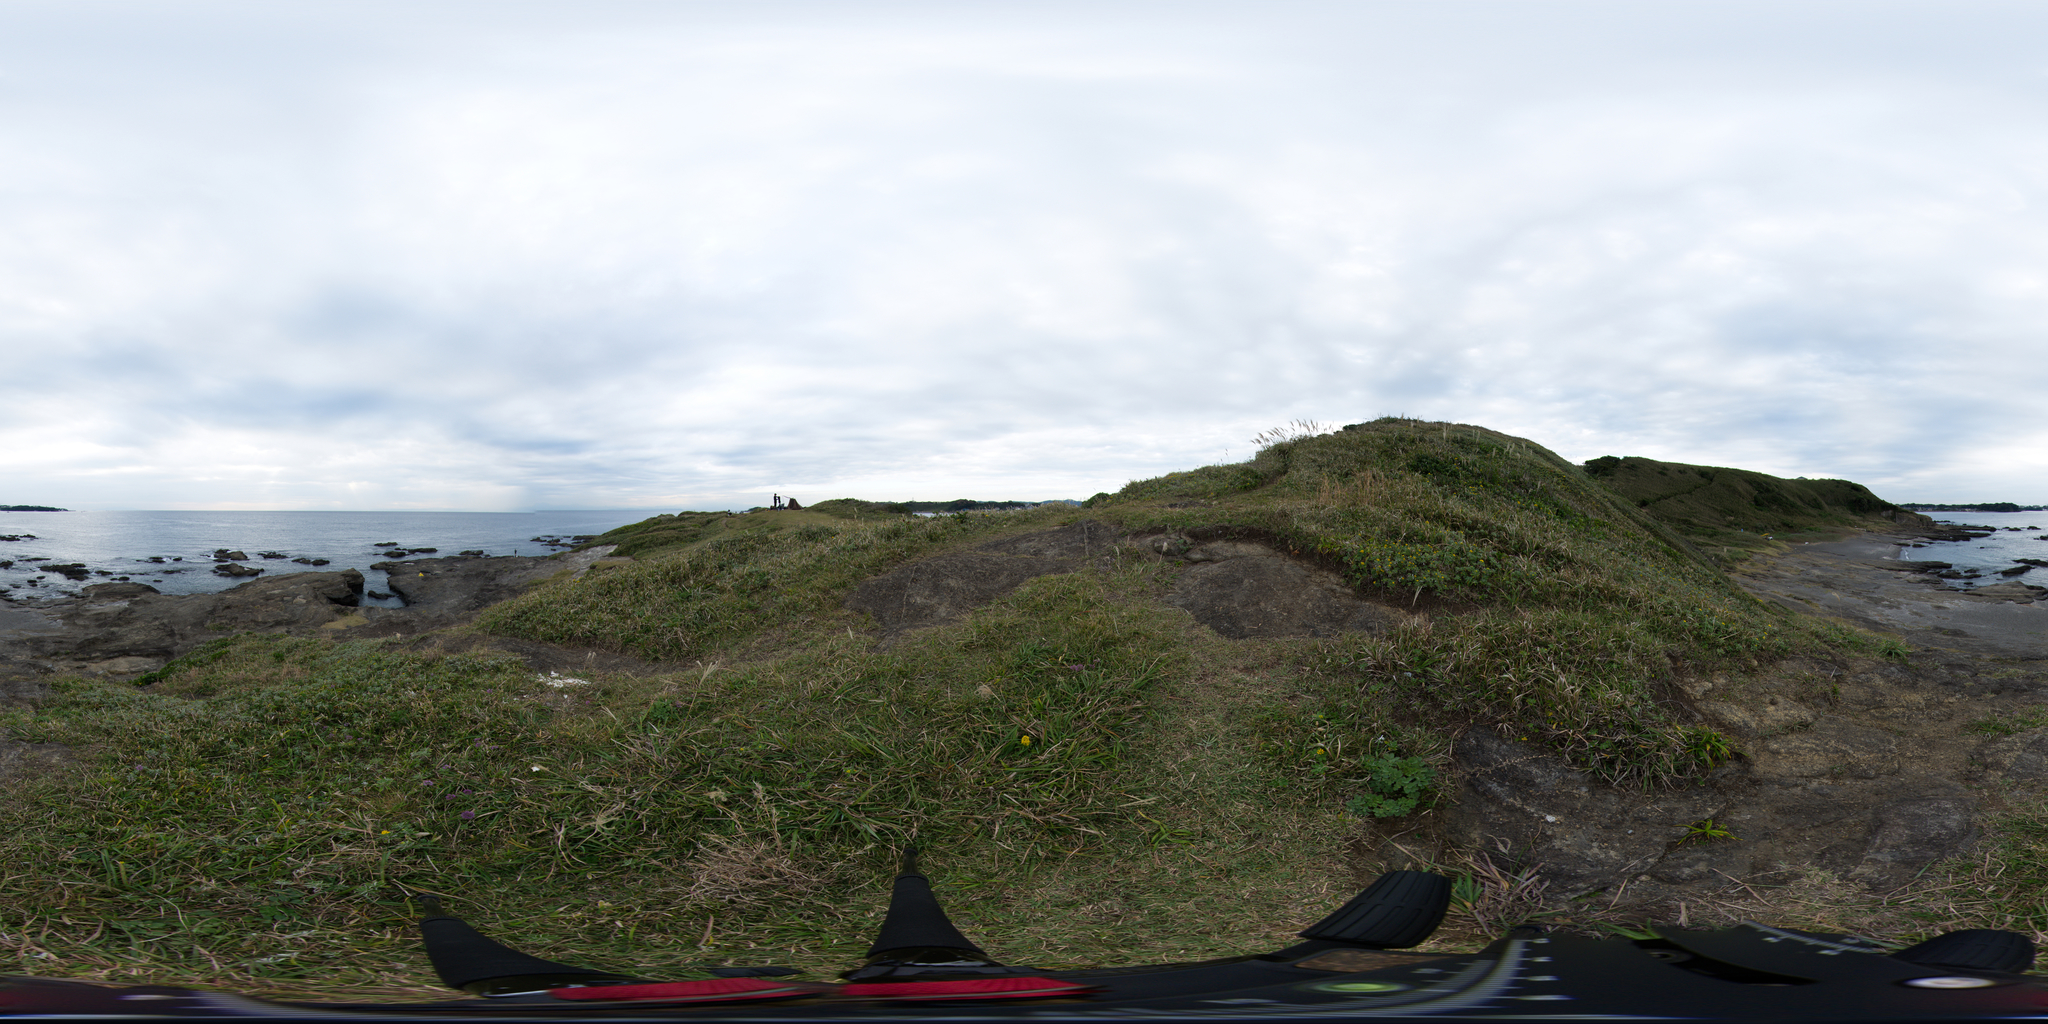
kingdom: Plantae
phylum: Tracheophyta
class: Magnoliopsida
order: Asterales
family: Asteraceae
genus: Solidago
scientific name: Solidago virgaurea
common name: Goldenrod
